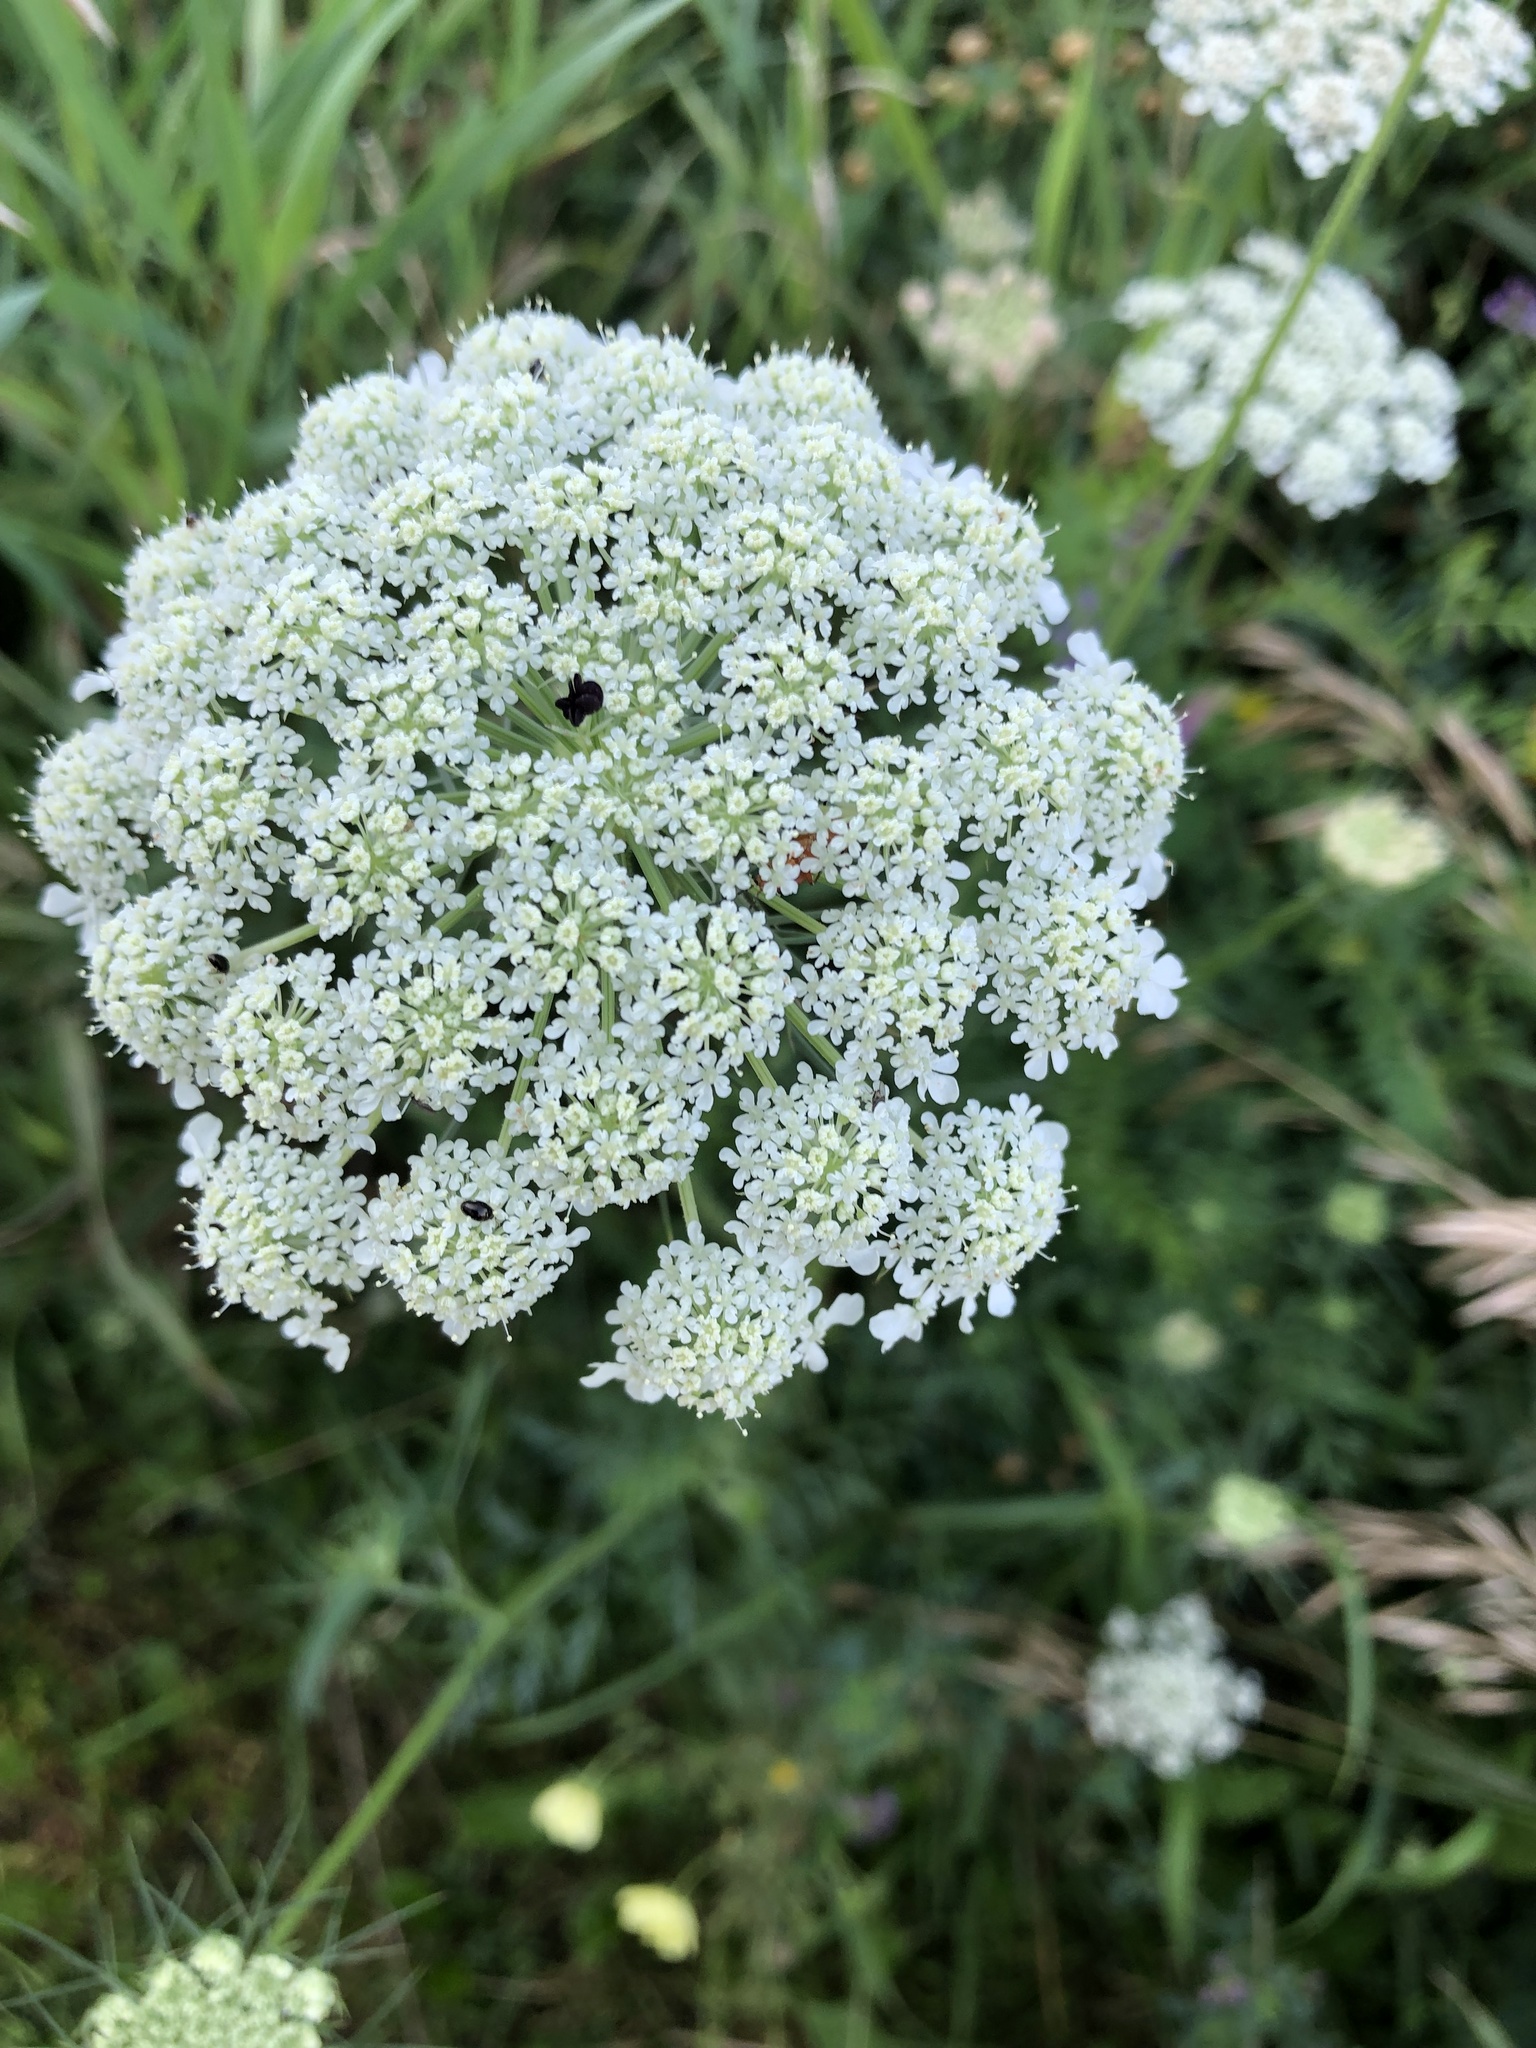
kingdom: Plantae
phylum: Tracheophyta
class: Magnoliopsida
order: Apiales
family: Apiaceae
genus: Daucus
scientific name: Daucus carota
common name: Wild carrot
